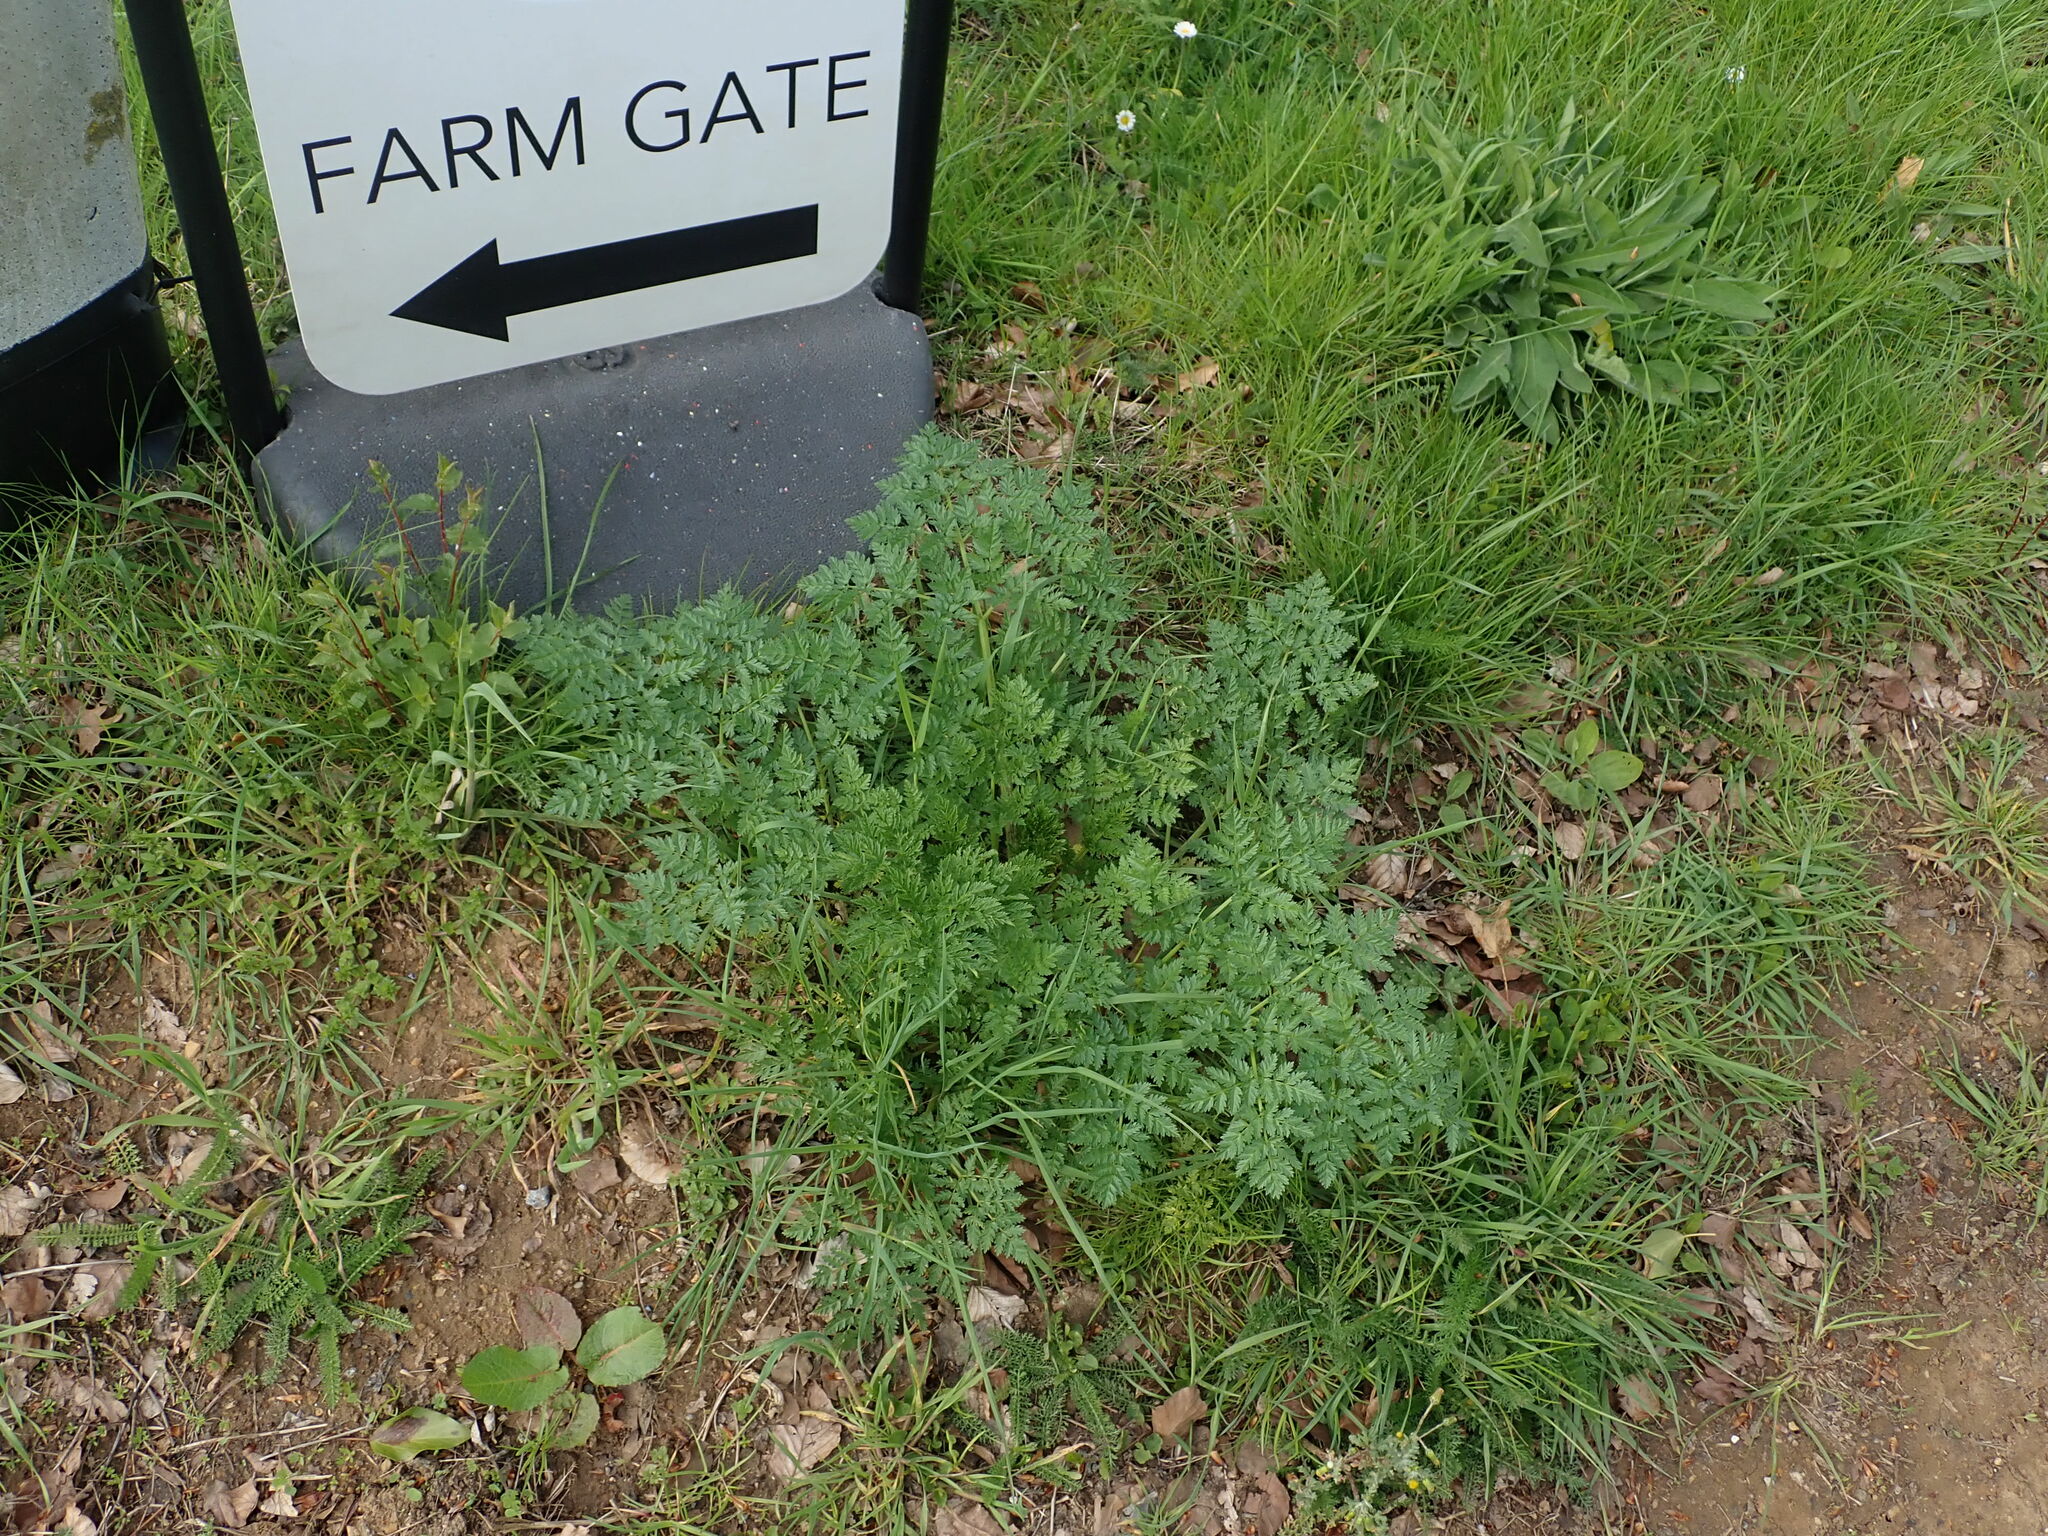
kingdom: Plantae
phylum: Tracheophyta
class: Magnoliopsida
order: Apiales
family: Apiaceae
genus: Conium
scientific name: Conium maculatum
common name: Hemlock
